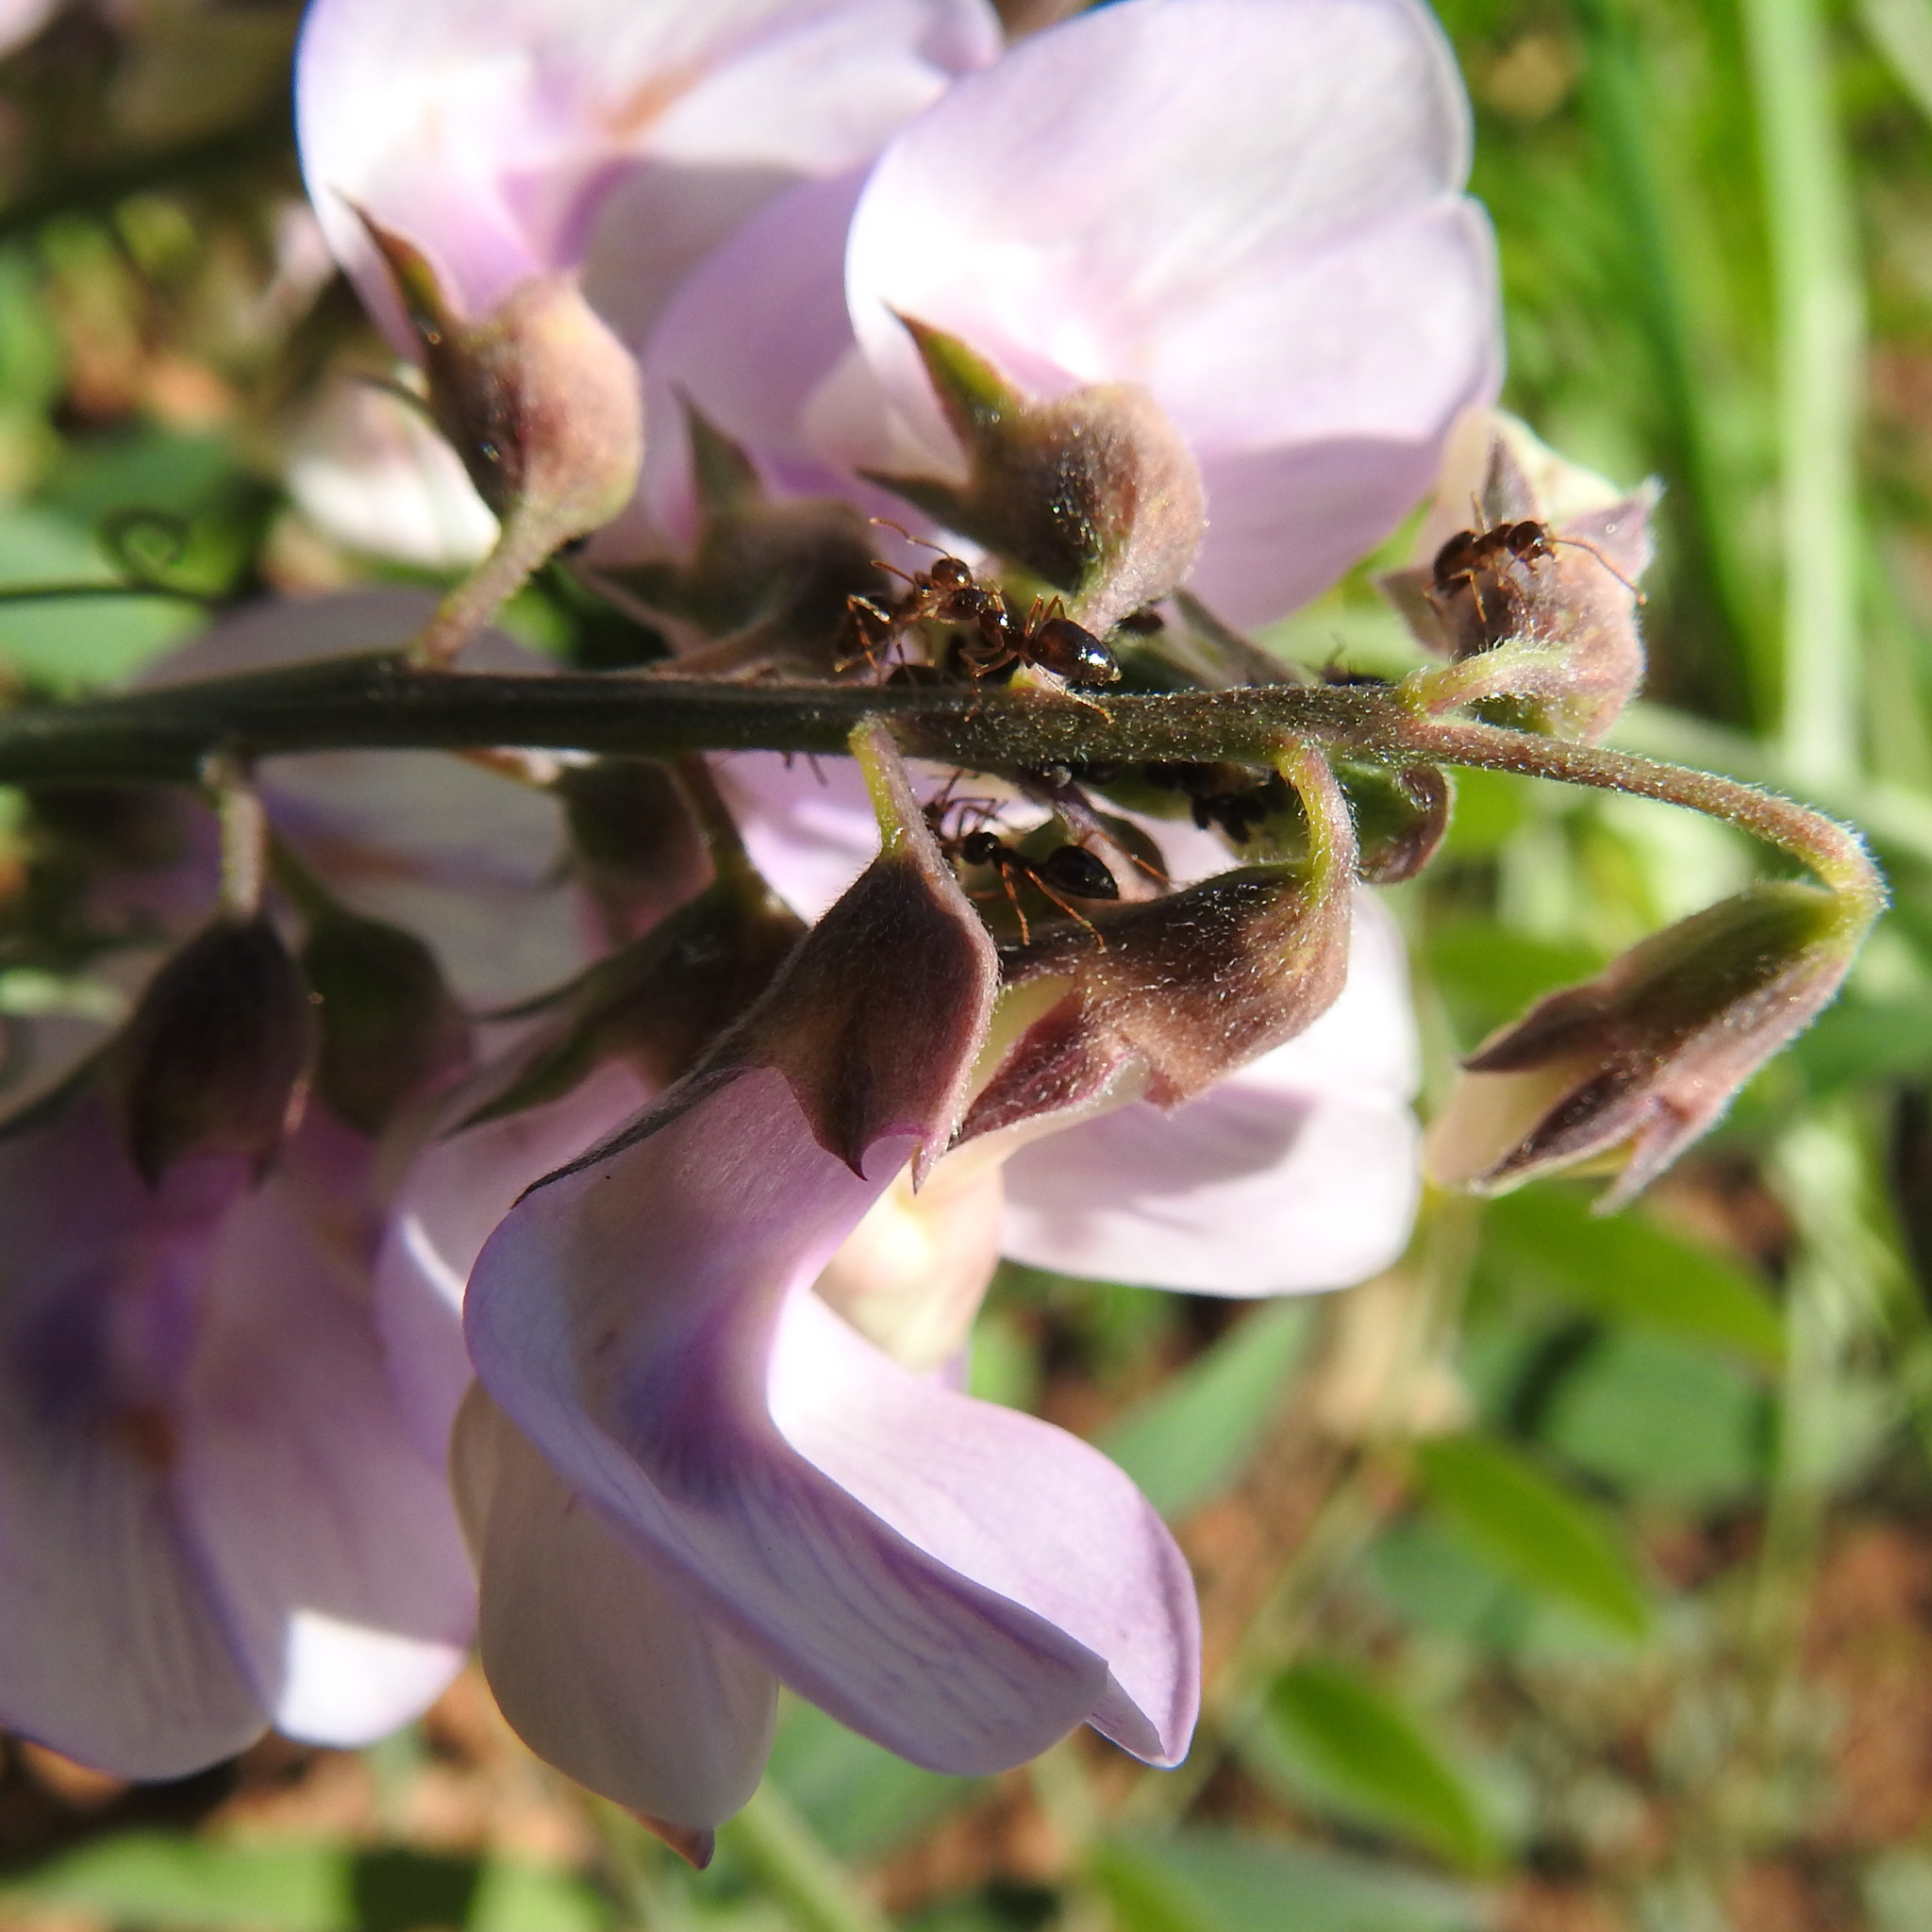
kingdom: Animalia
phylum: Arthropoda
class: Insecta
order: Hymenoptera
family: Formicidae
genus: Prenolepis
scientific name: Prenolepis imparis
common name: Small honey ant
